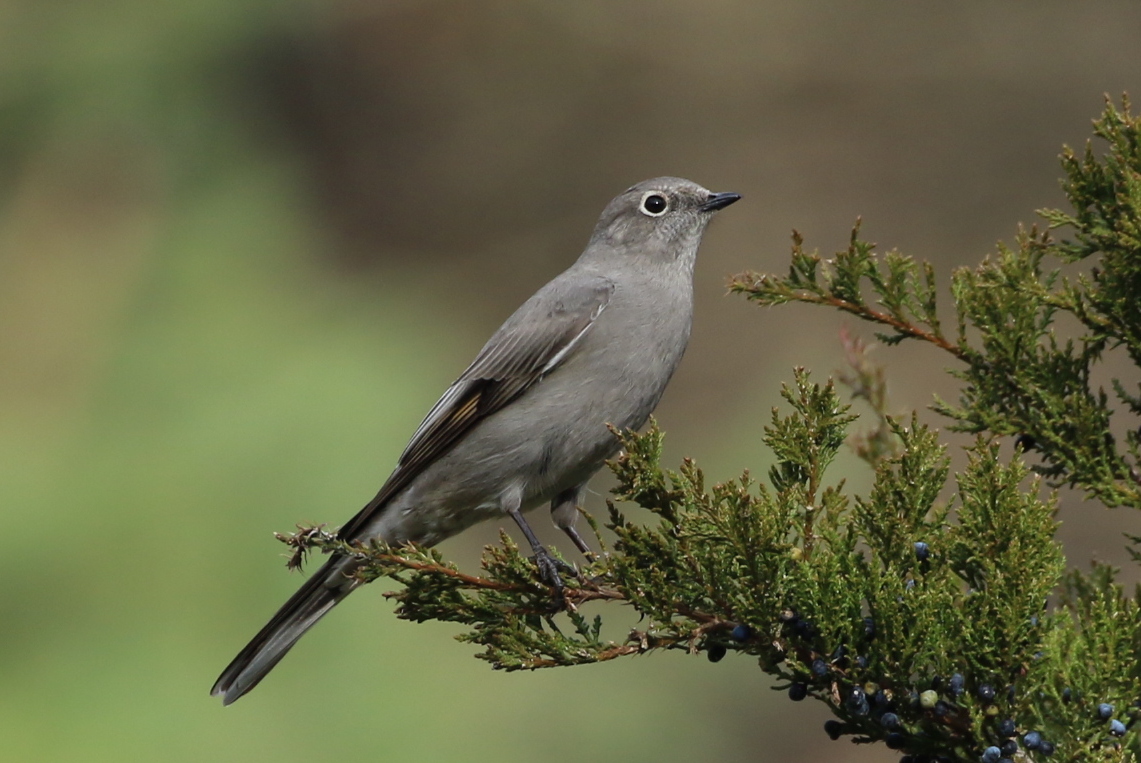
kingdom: Animalia
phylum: Chordata
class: Aves
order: Passeriformes
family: Turdidae
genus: Myadestes
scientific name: Myadestes townsendi
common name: Townsend's solitaire
